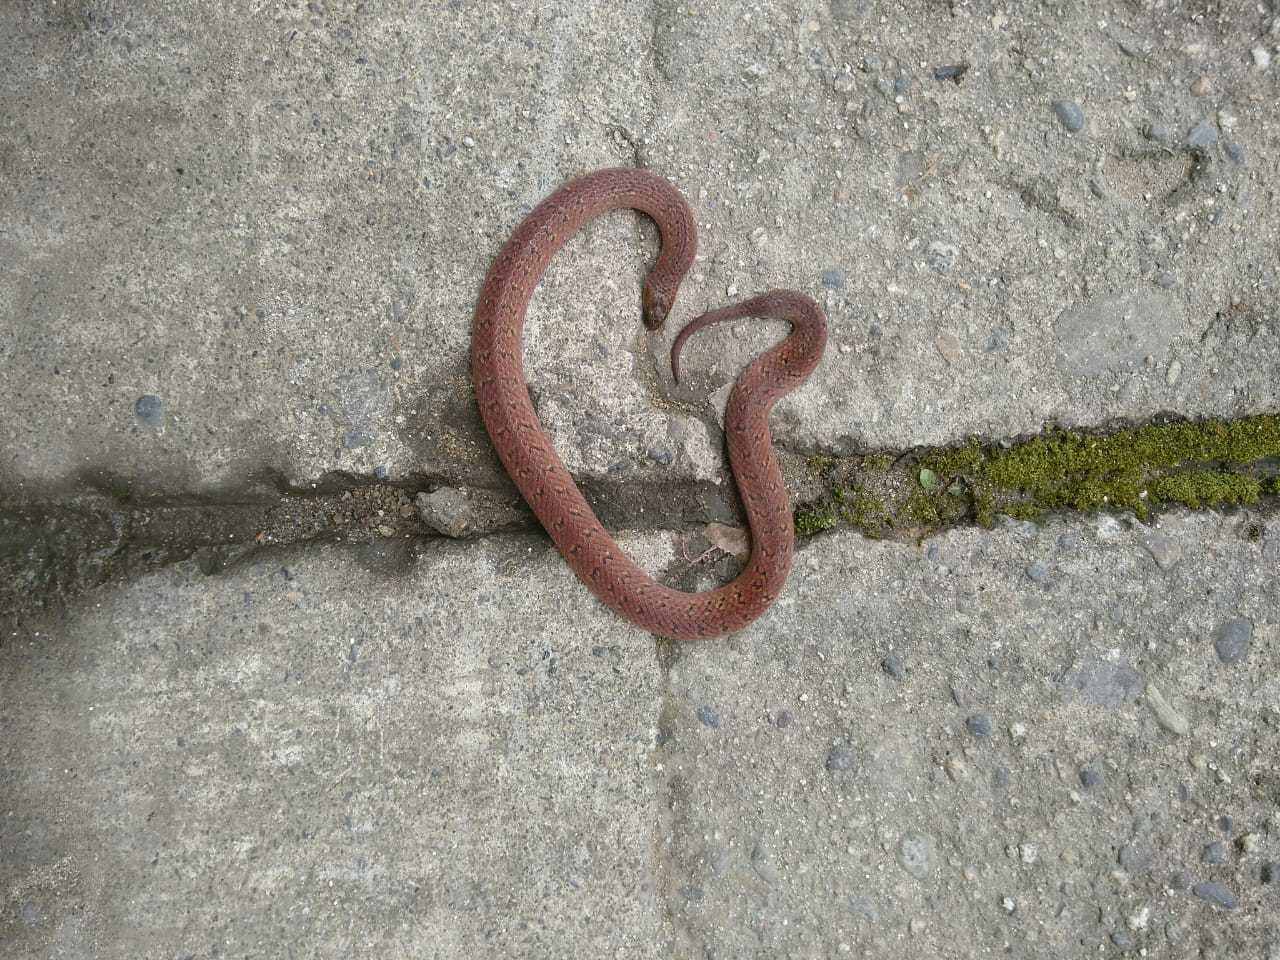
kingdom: Animalia
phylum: Chordata
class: Squamata
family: Colubridae
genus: Atractus
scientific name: Atractus nicefori
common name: Northern ground snake
